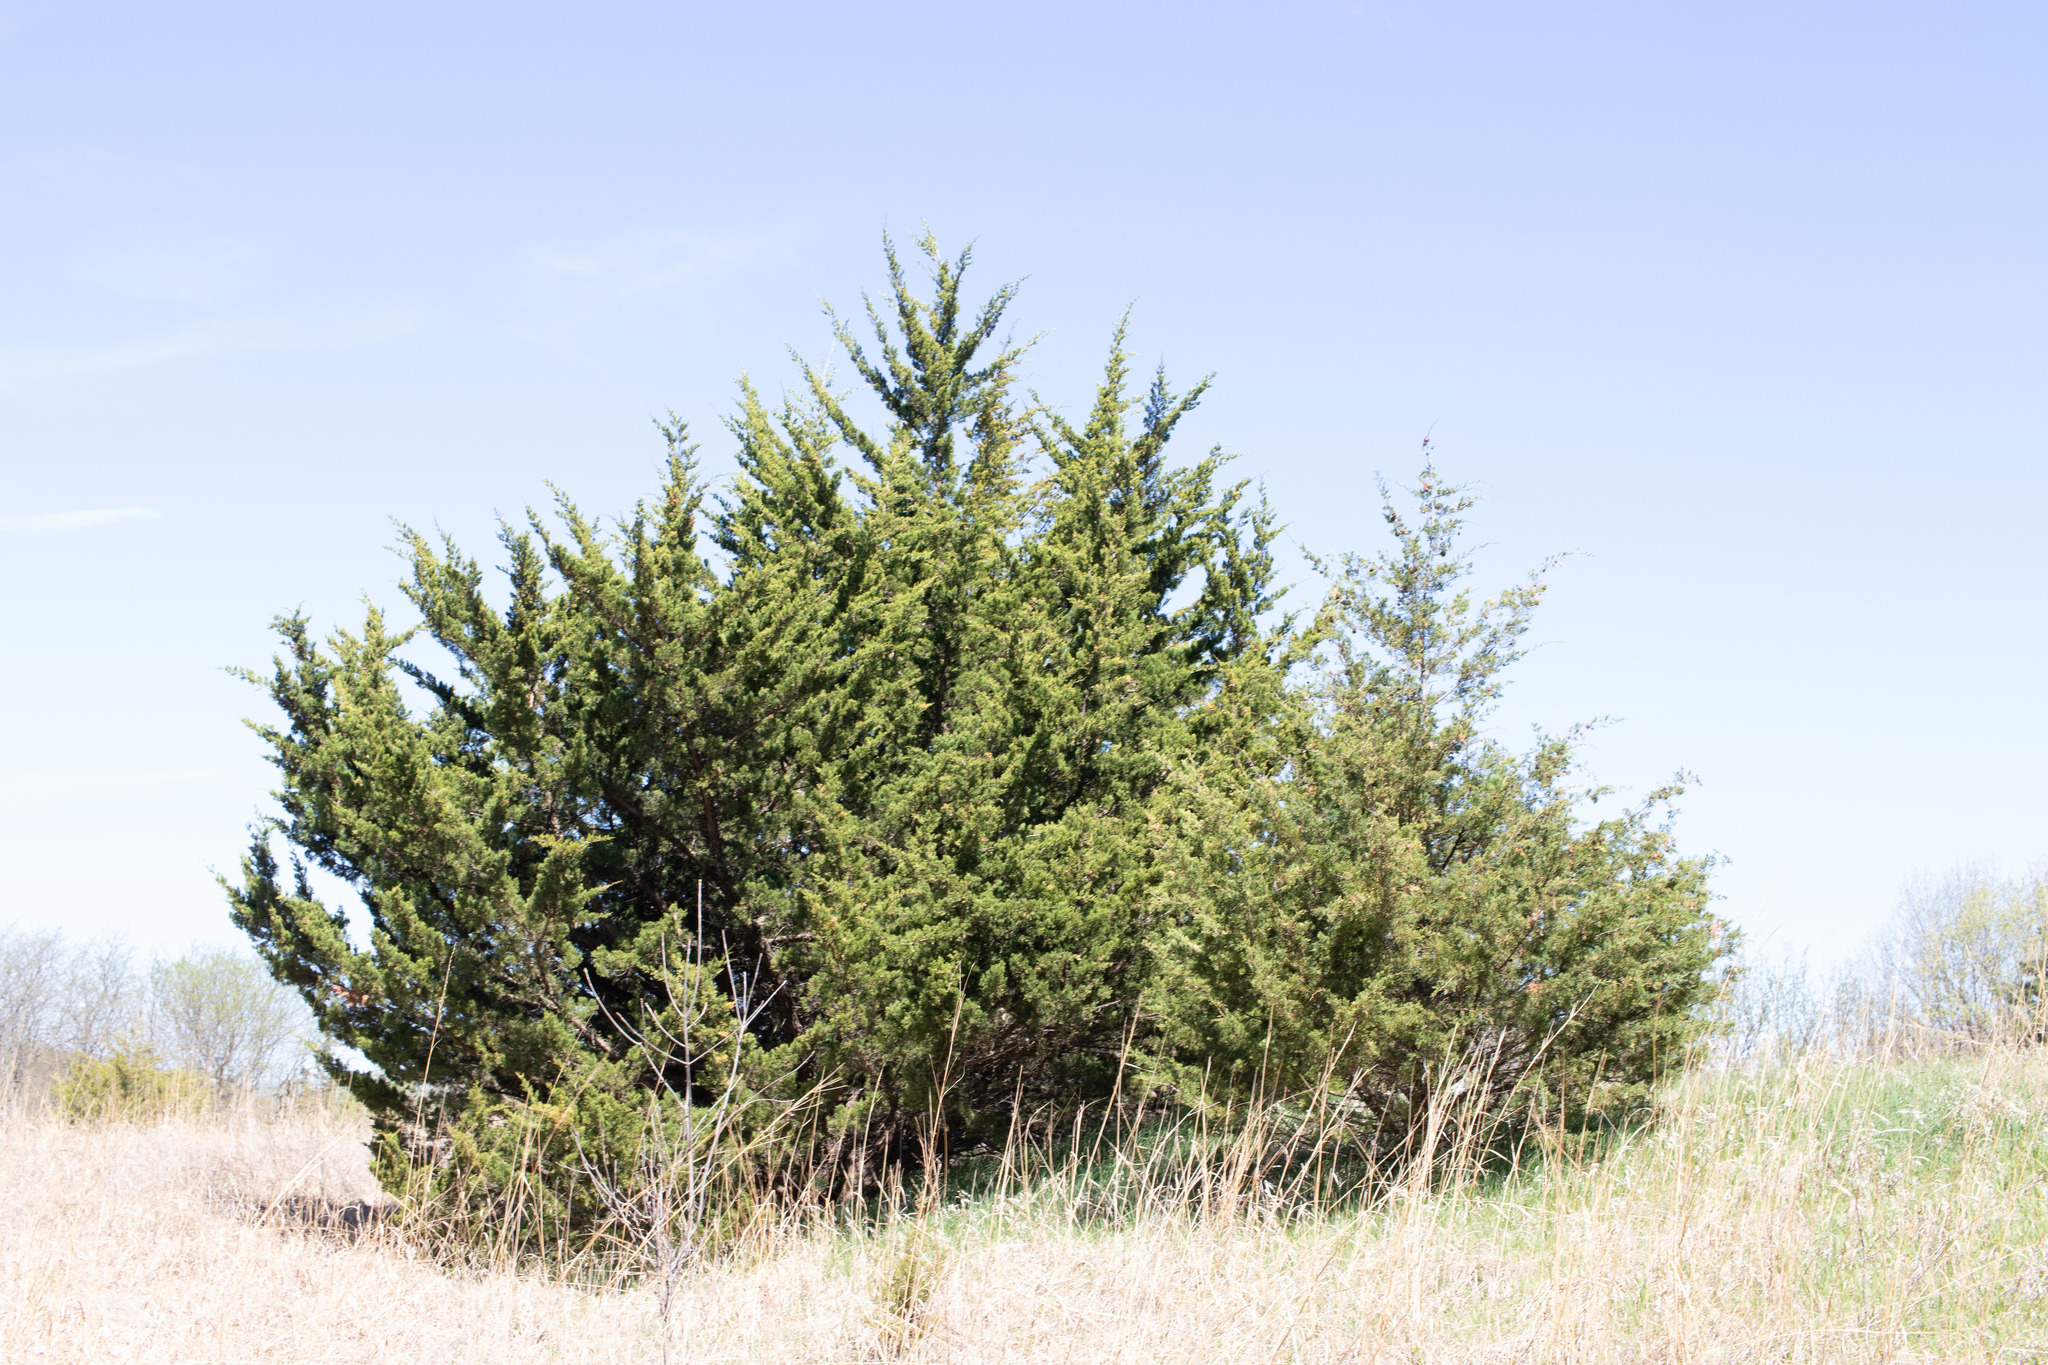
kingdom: Plantae
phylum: Tracheophyta
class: Pinopsida
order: Pinales
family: Cupressaceae
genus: Juniperus
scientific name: Juniperus virginiana
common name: Red juniper
